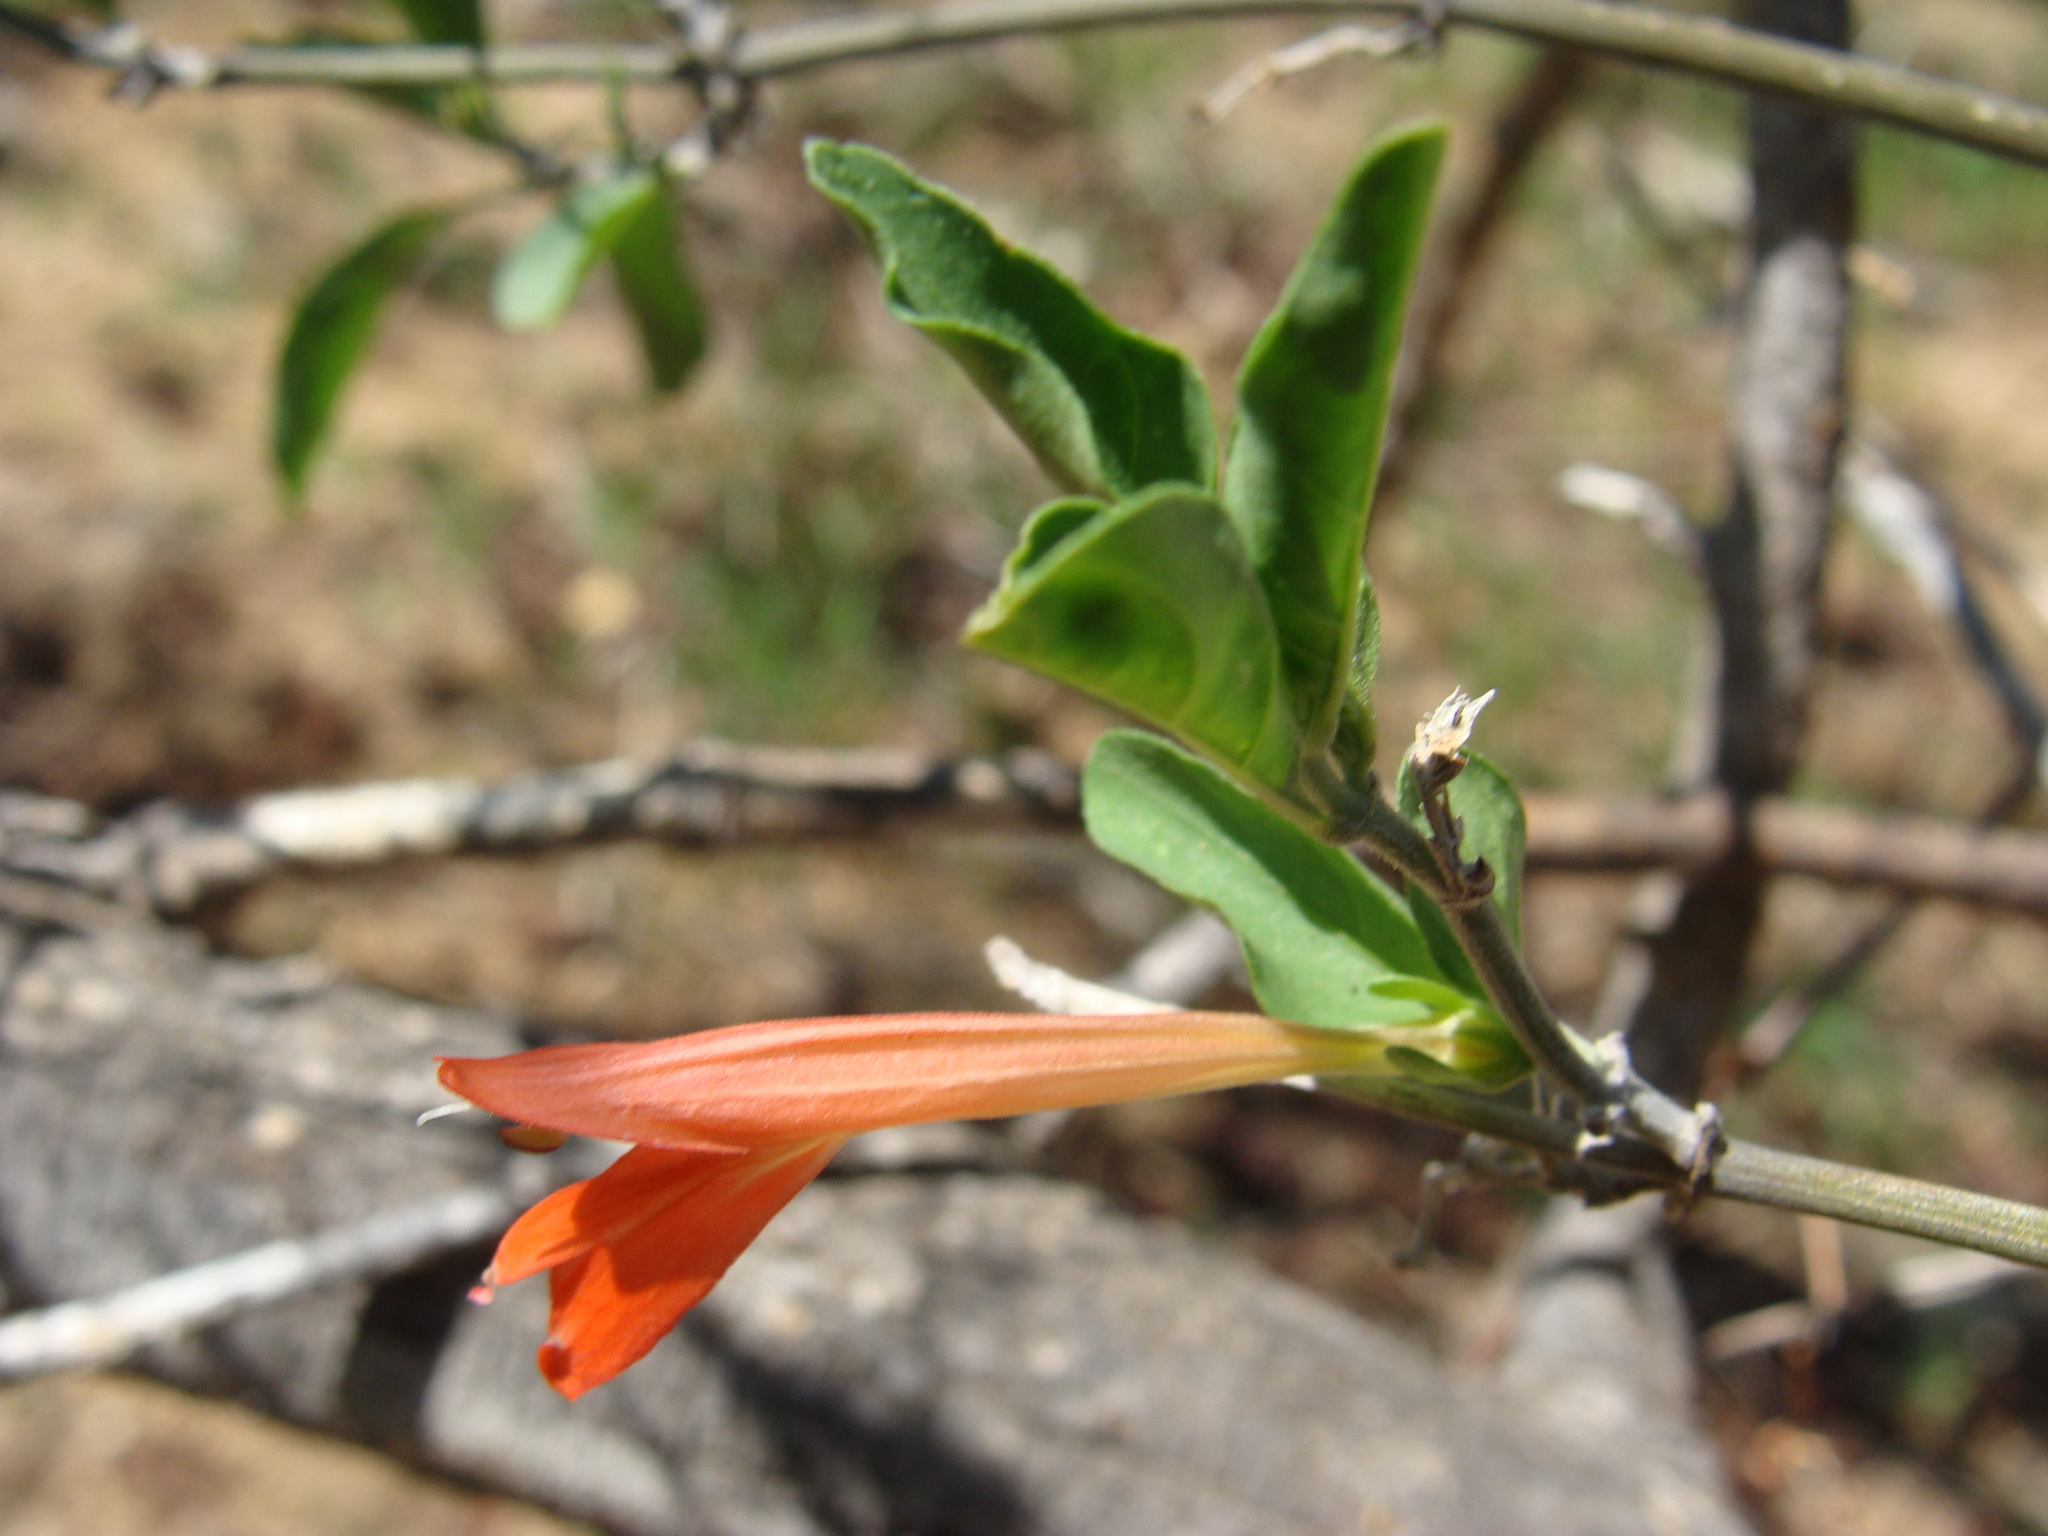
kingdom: Plantae
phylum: Tracheophyta
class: Magnoliopsida
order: Lamiales
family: Acanthaceae
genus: Justicia
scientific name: Justicia palmeri
